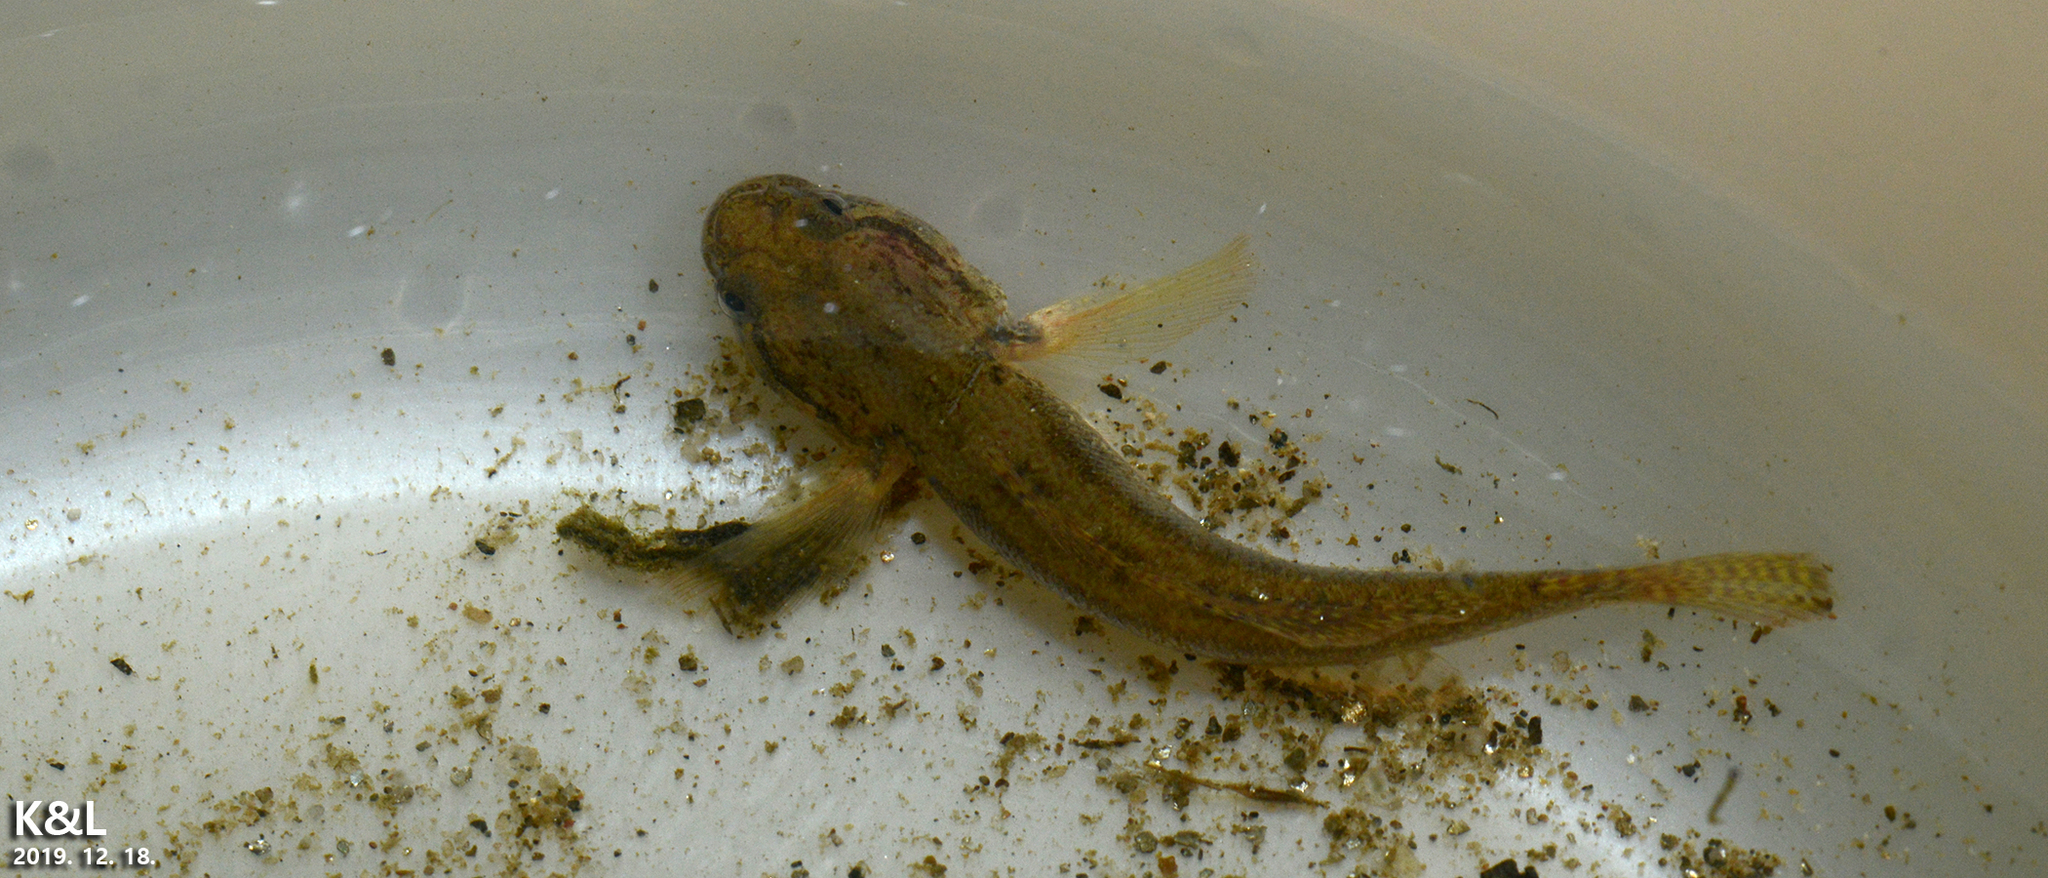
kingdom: Animalia
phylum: Chordata
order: Perciformes
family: Gobiidae
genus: Tridentiger
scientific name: Tridentiger bifasciatus
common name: Shimofuri goby
